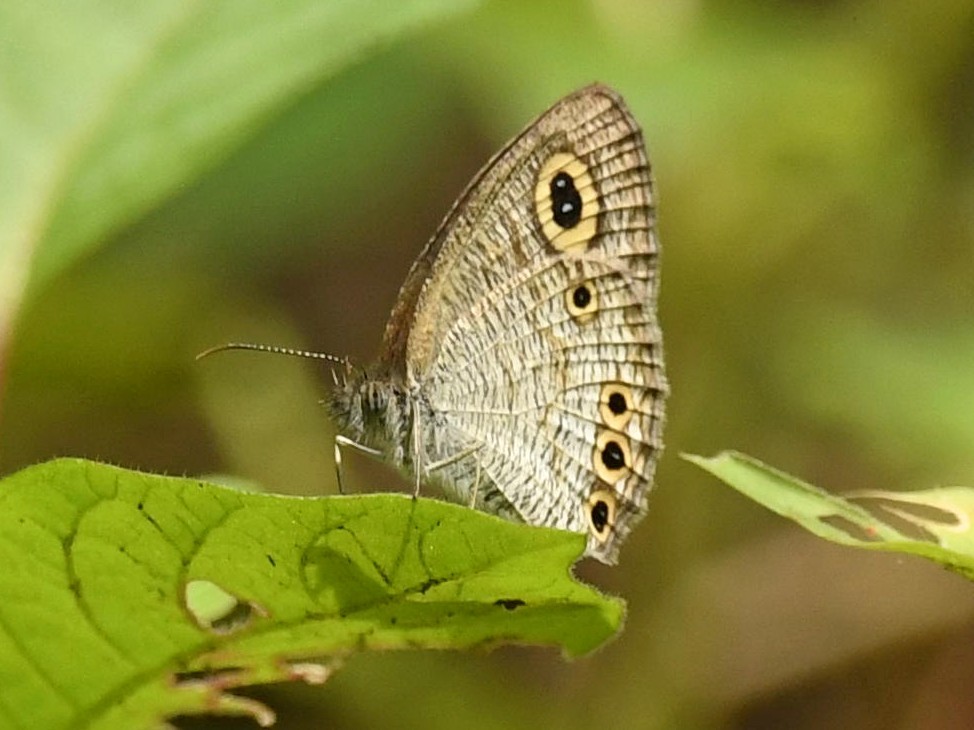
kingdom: Animalia
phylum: Arthropoda
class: Insecta
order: Lepidoptera
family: Nymphalidae
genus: Ypthima
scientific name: Ypthima huebneri
